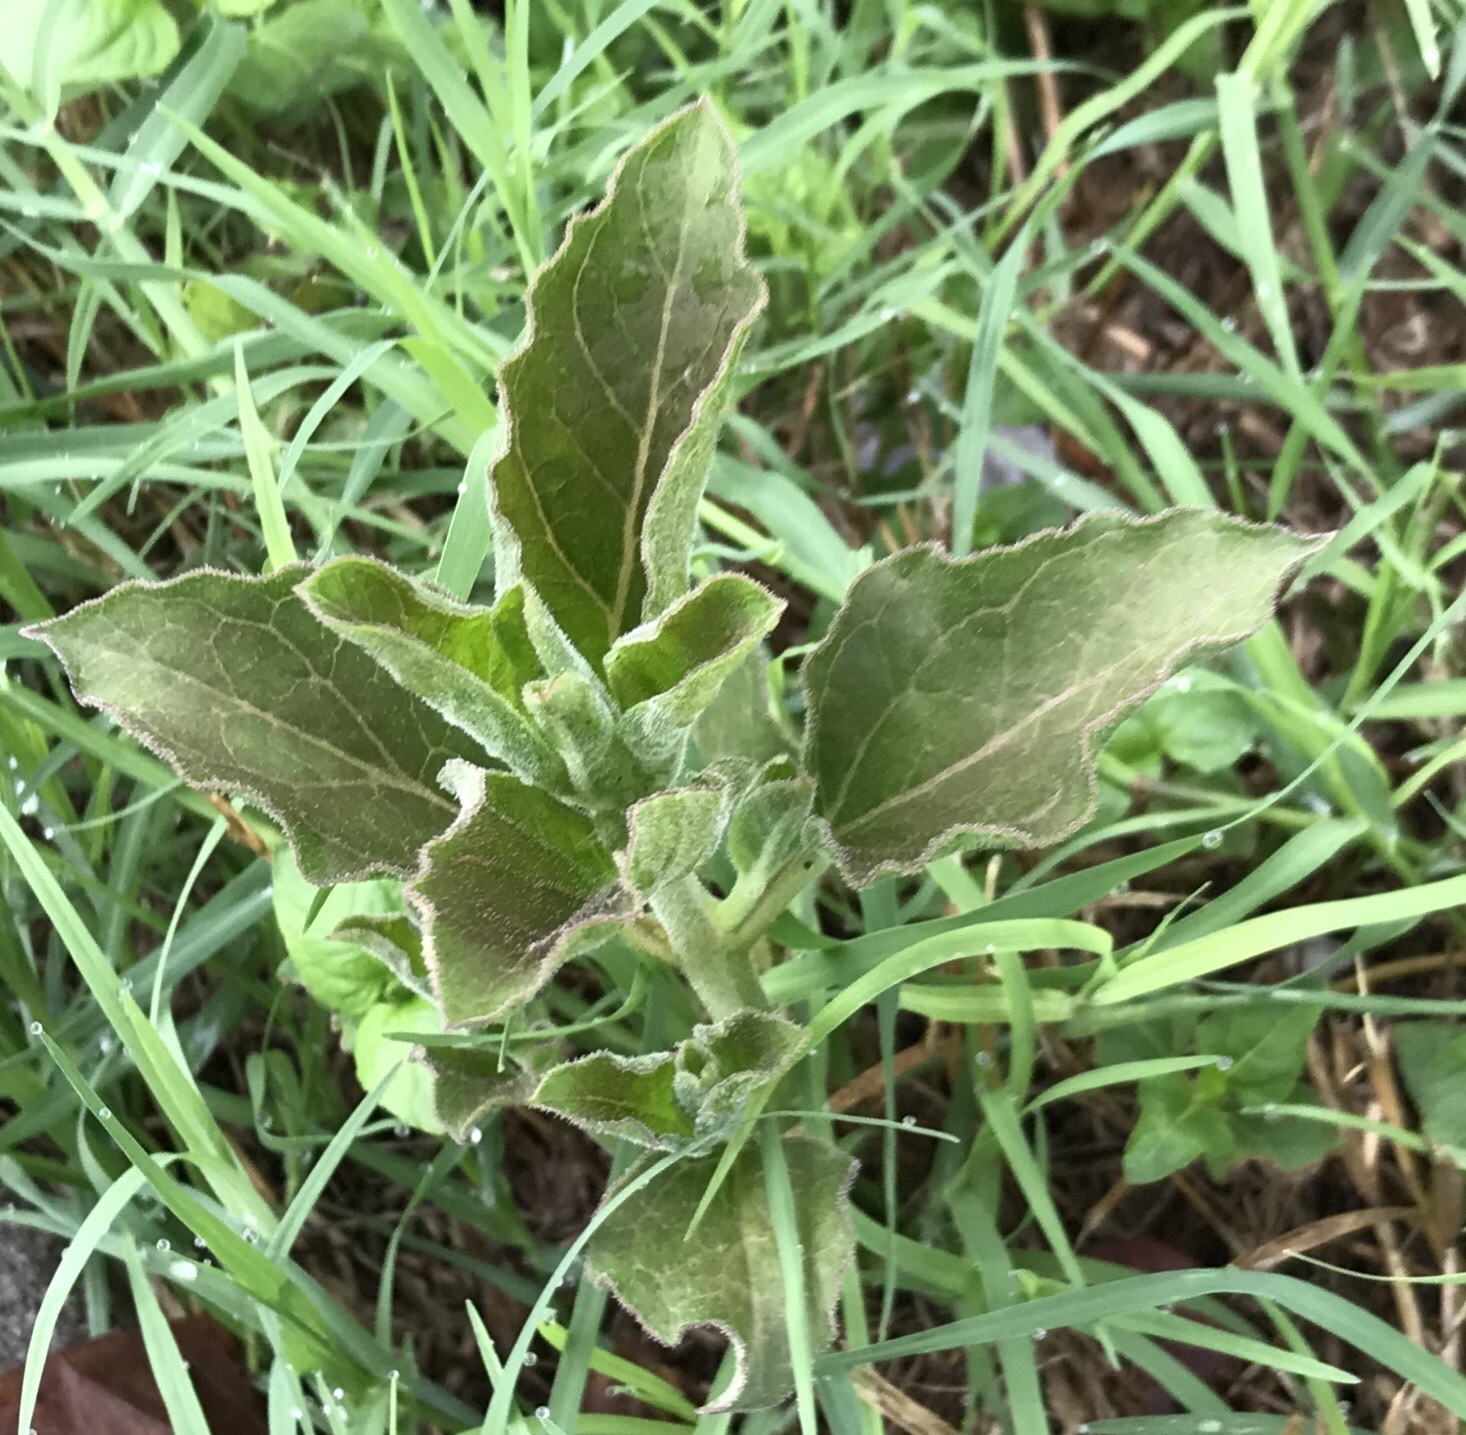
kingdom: Plantae
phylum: Tracheophyta
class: Magnoliopsida
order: Gentianales
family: Apocynaceae
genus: Asclepias
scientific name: Asclepias oenotheroides
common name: Zizotes milkweed
